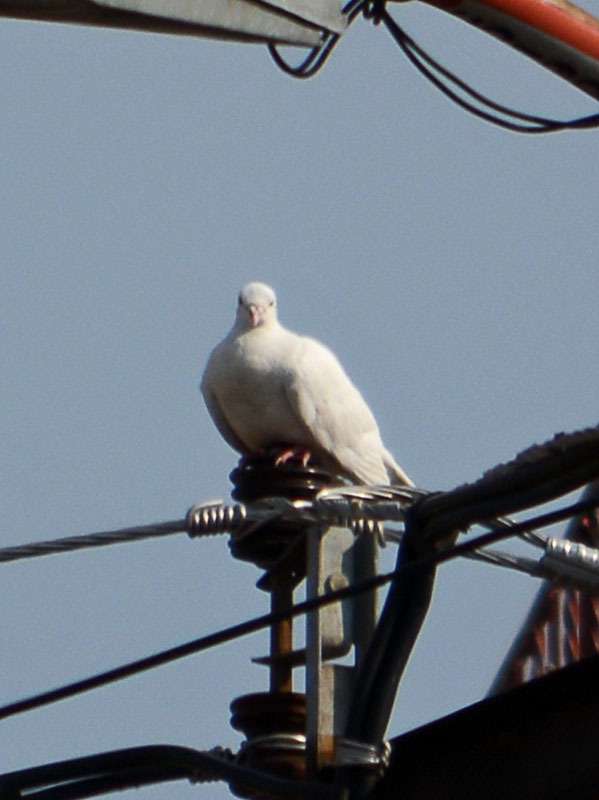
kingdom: Animalia
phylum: Chordata
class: Aves
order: Columbiformes
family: Columbidae
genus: Columba
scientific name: Columba livia
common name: Rock pigeon
